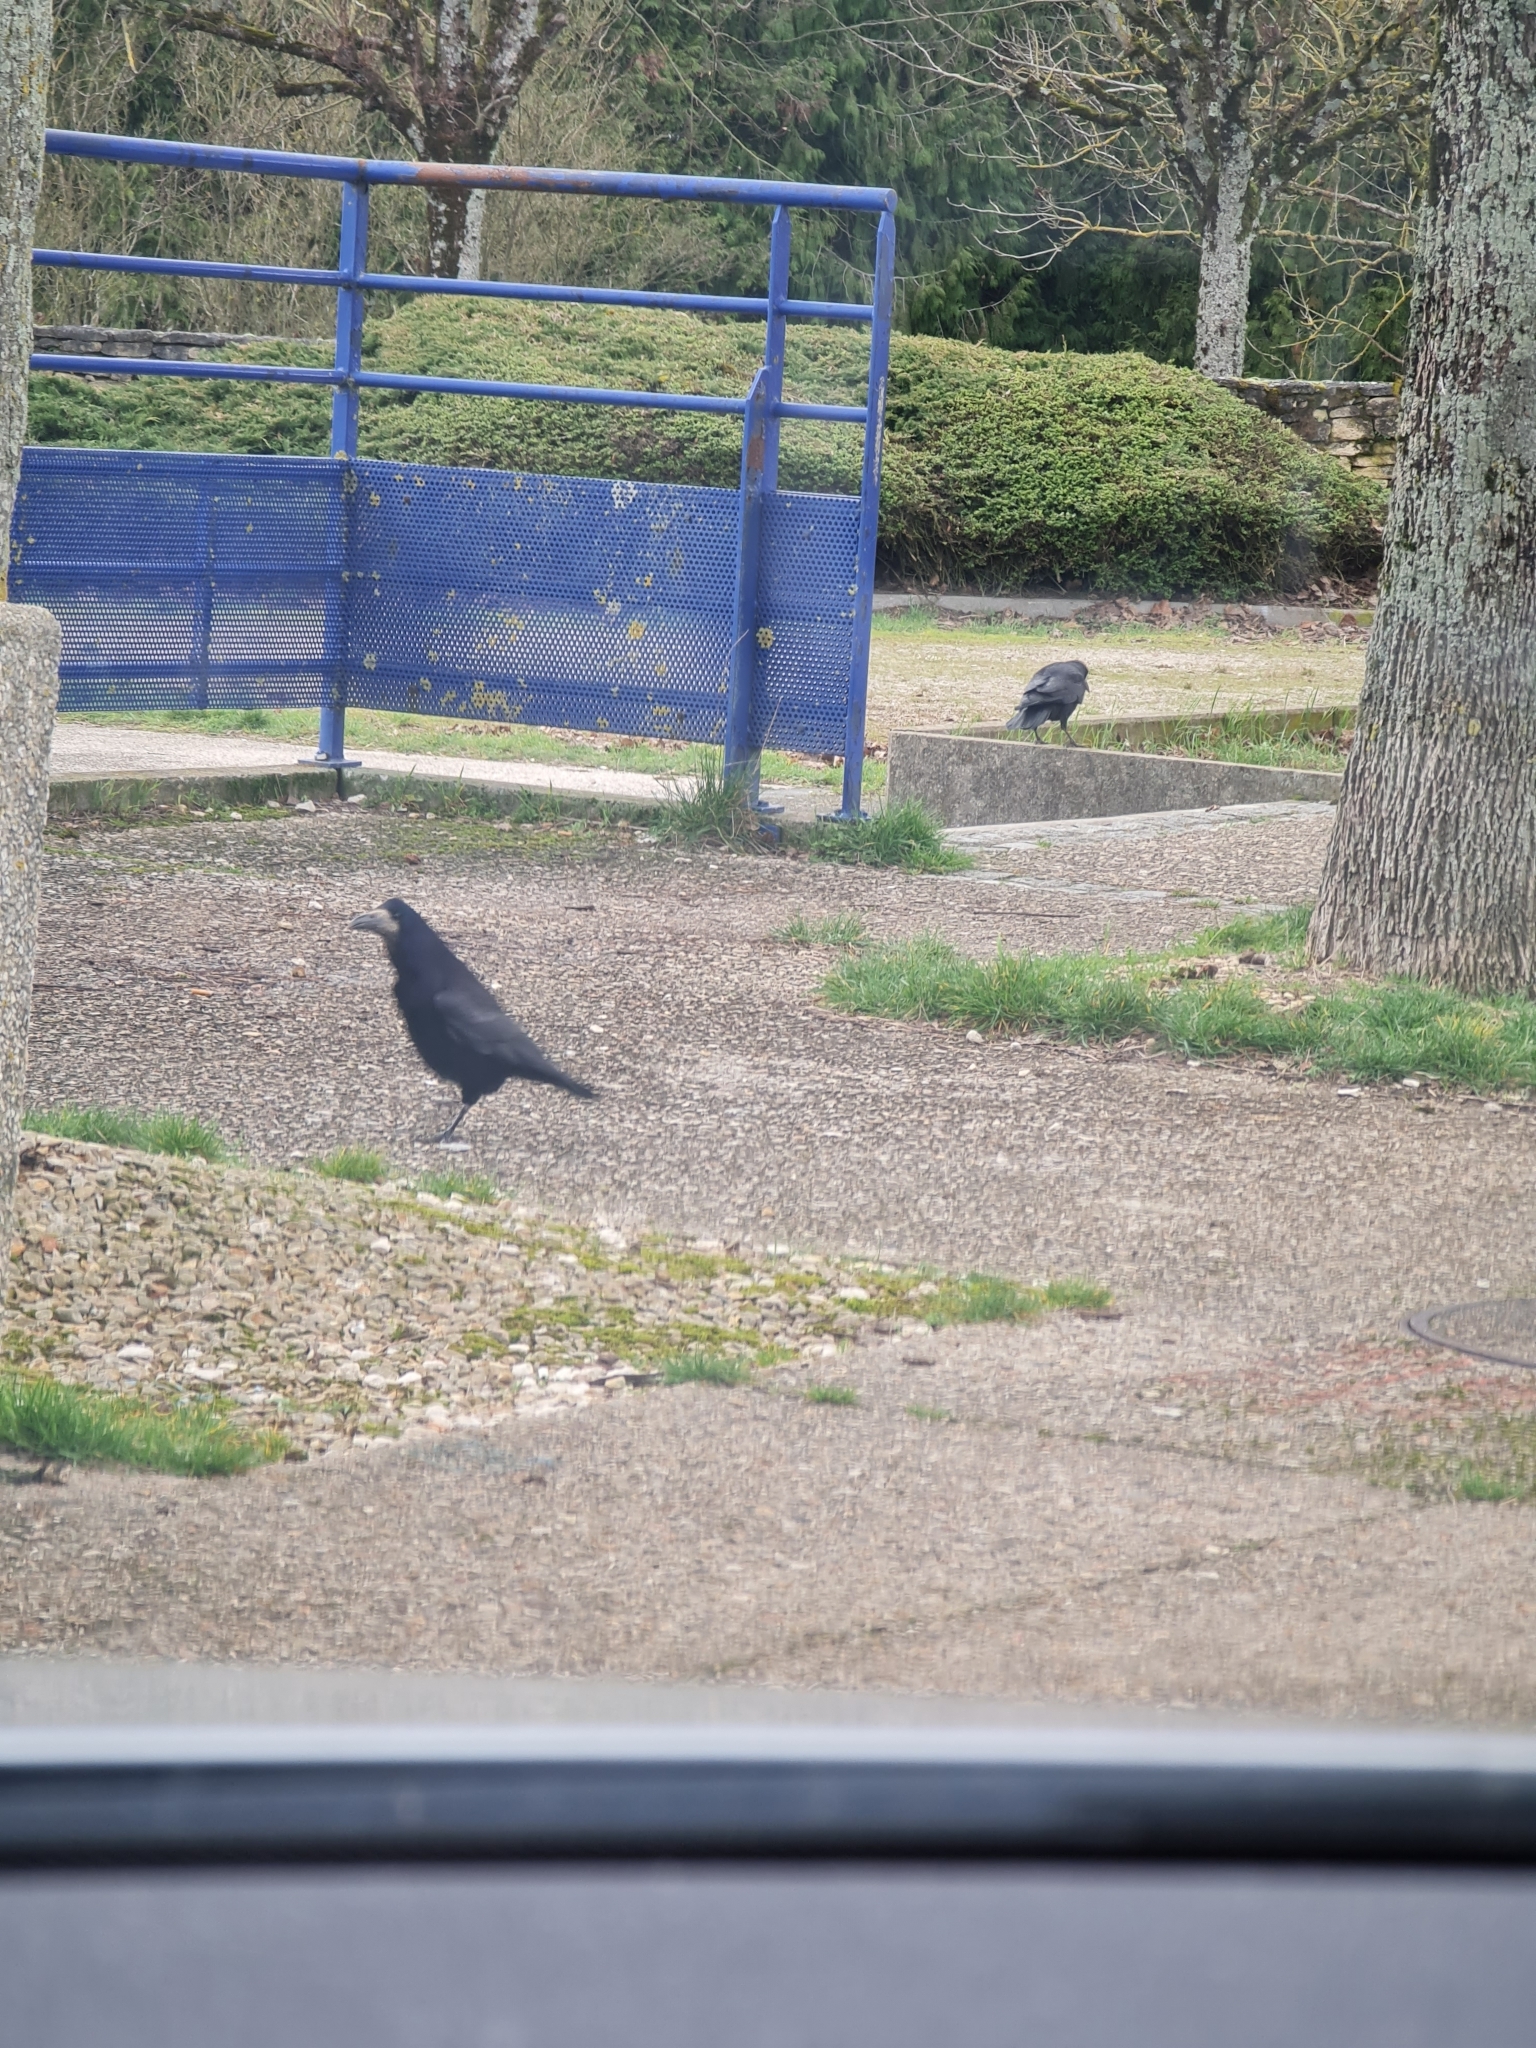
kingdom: Animalia
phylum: Chordata
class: Aves
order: Passeriformes
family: Corvidae
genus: Corvus
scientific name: Corvus frugilegus
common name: Rook
